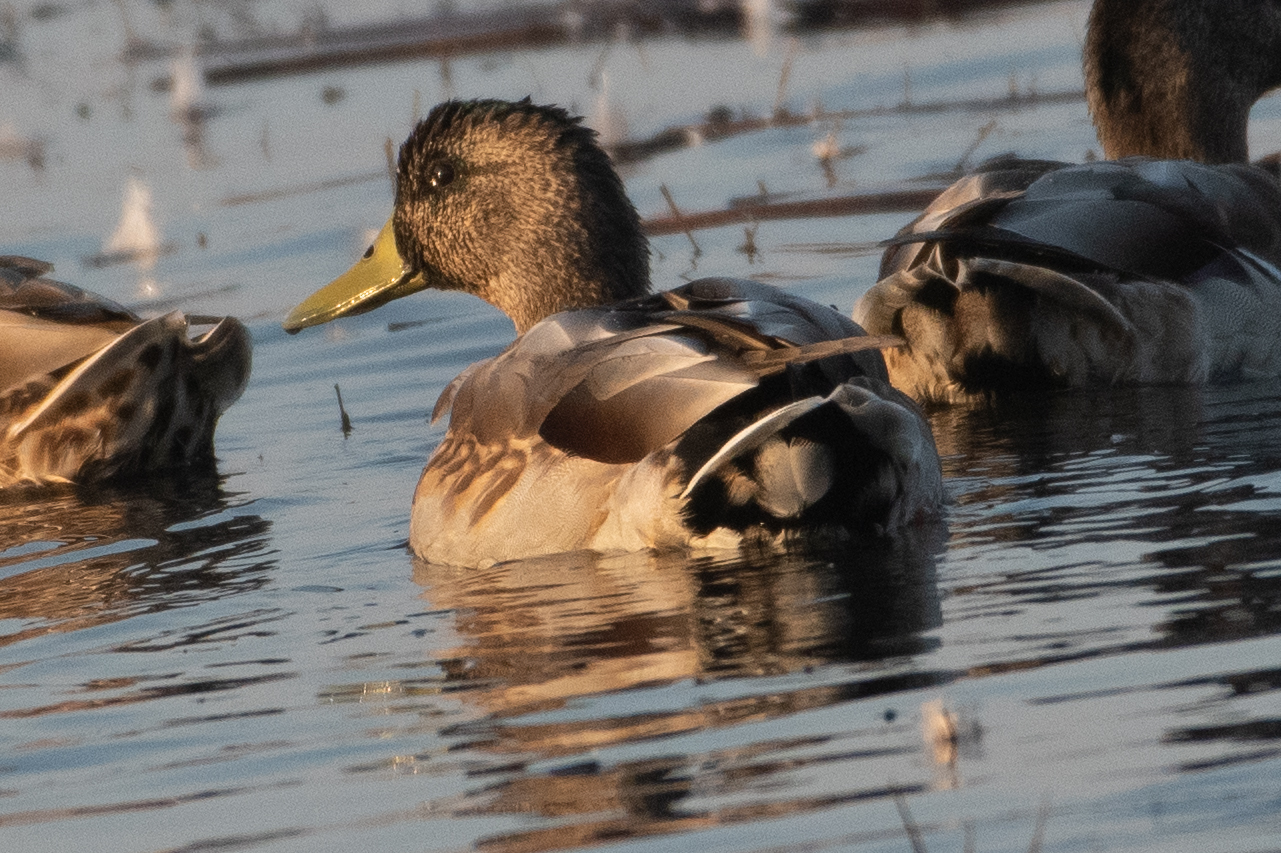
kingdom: Animalia
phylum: Chordata
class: Aves
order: Anseriformes
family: Anatidae
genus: Anas
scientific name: Anas platyrhynchos
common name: Mallard
